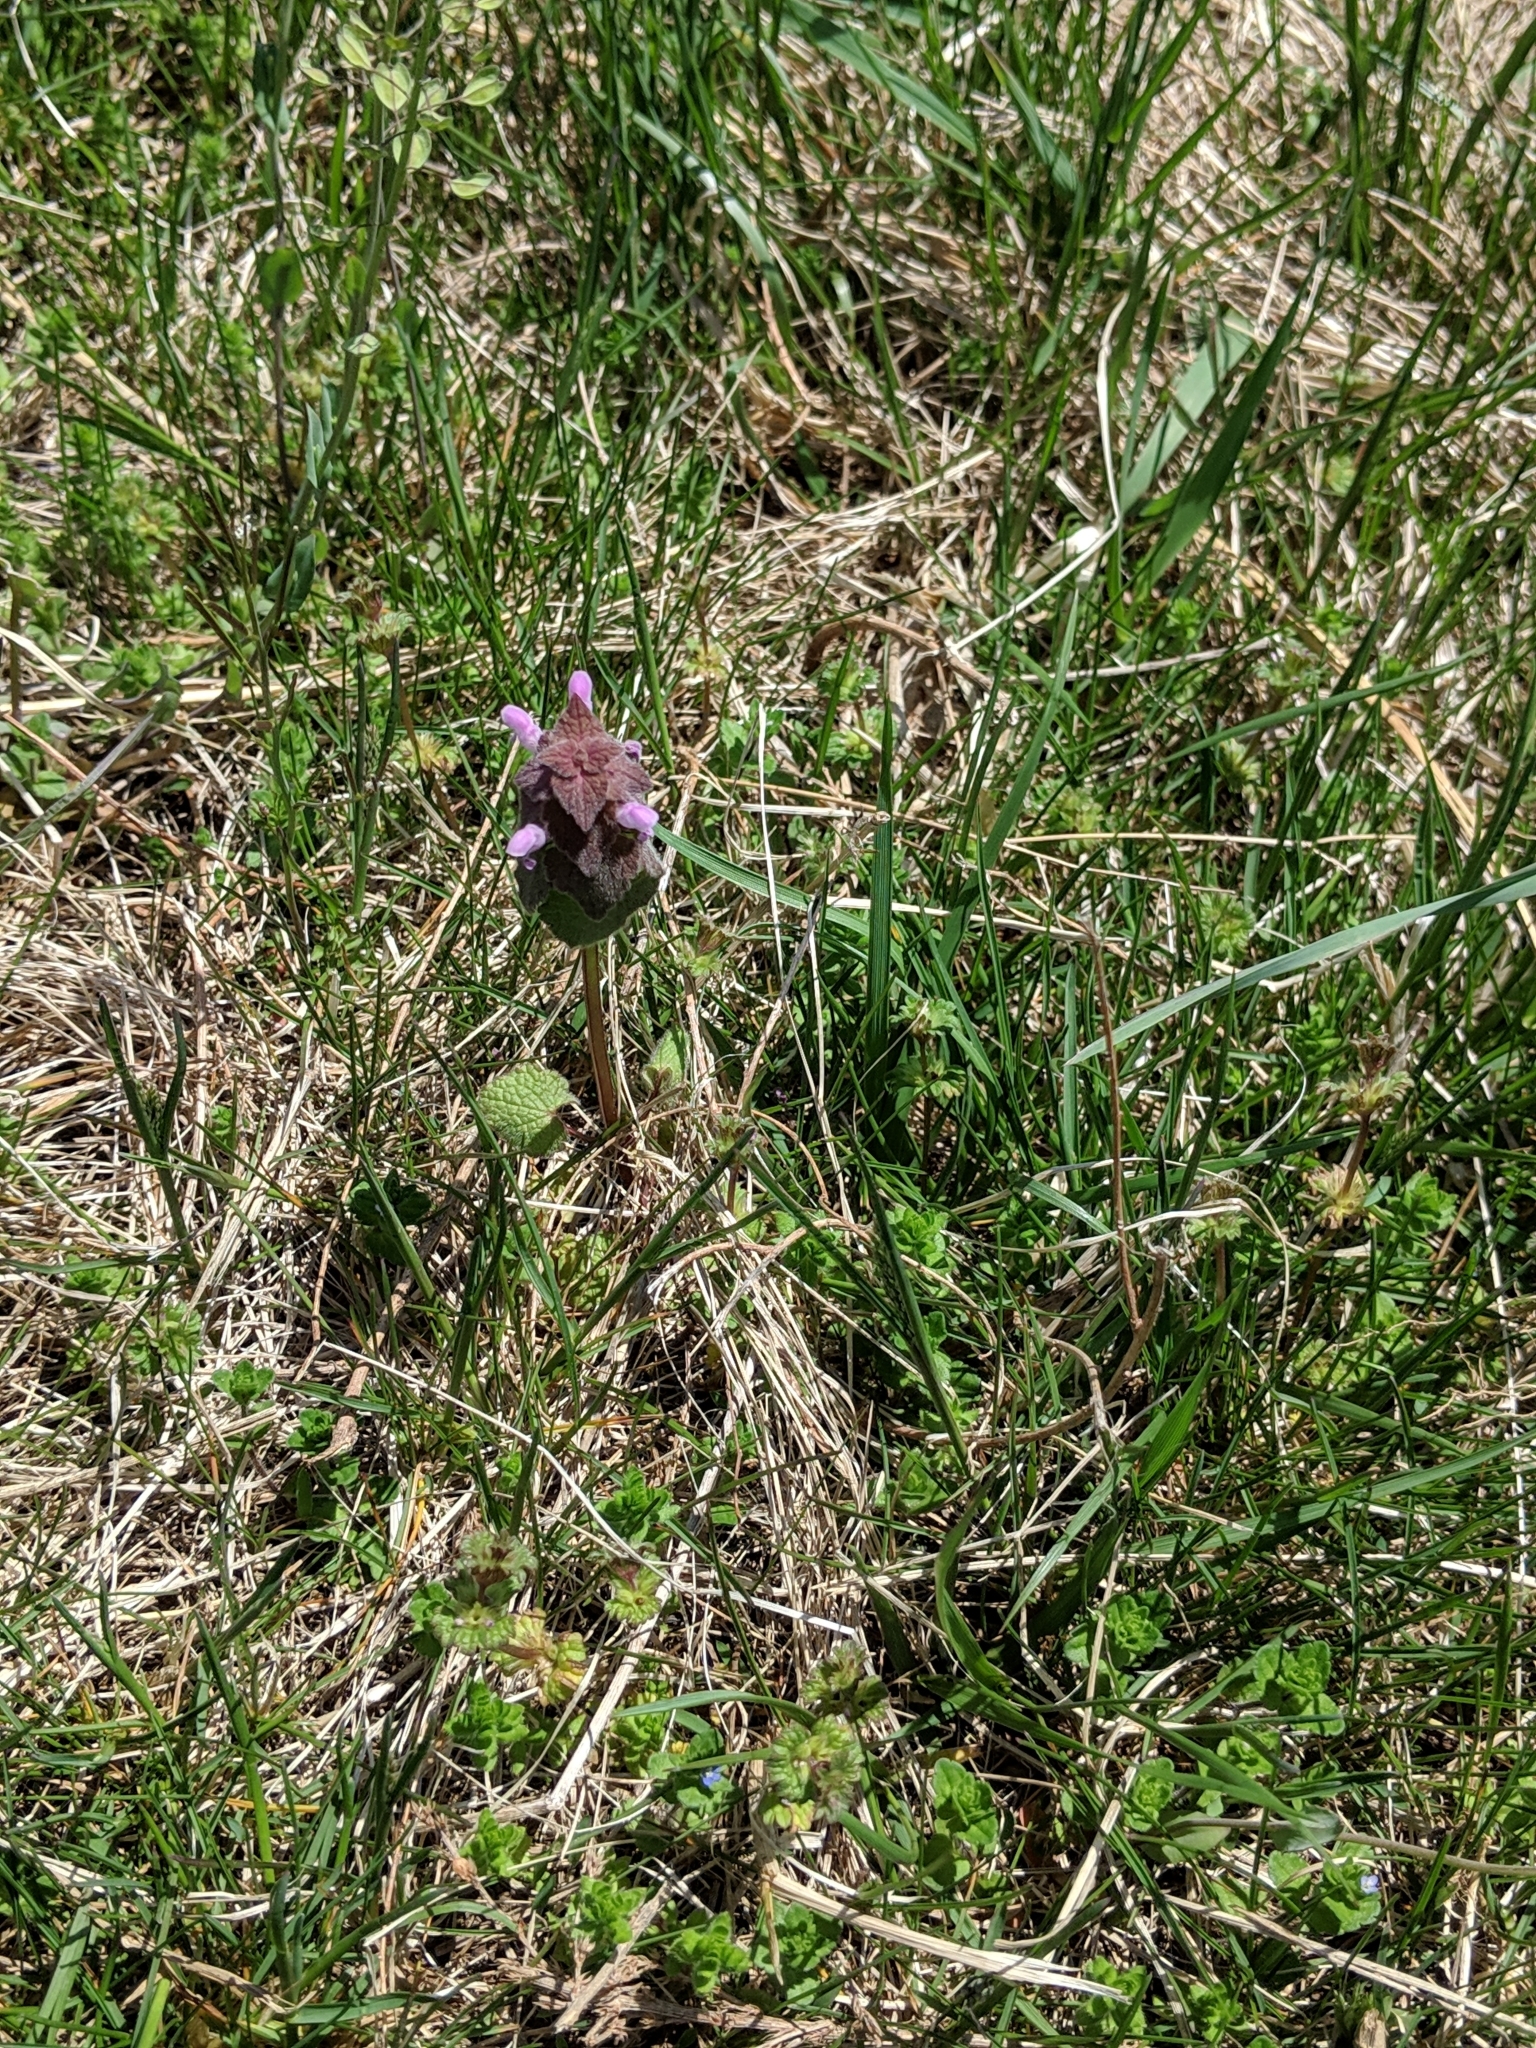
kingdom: Plantae
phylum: Tracheophyta
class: Magnoliopsida
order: Lamiales
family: Lamiaceae
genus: Lamium
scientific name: Lamium purpureum
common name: Red dead-nettle
